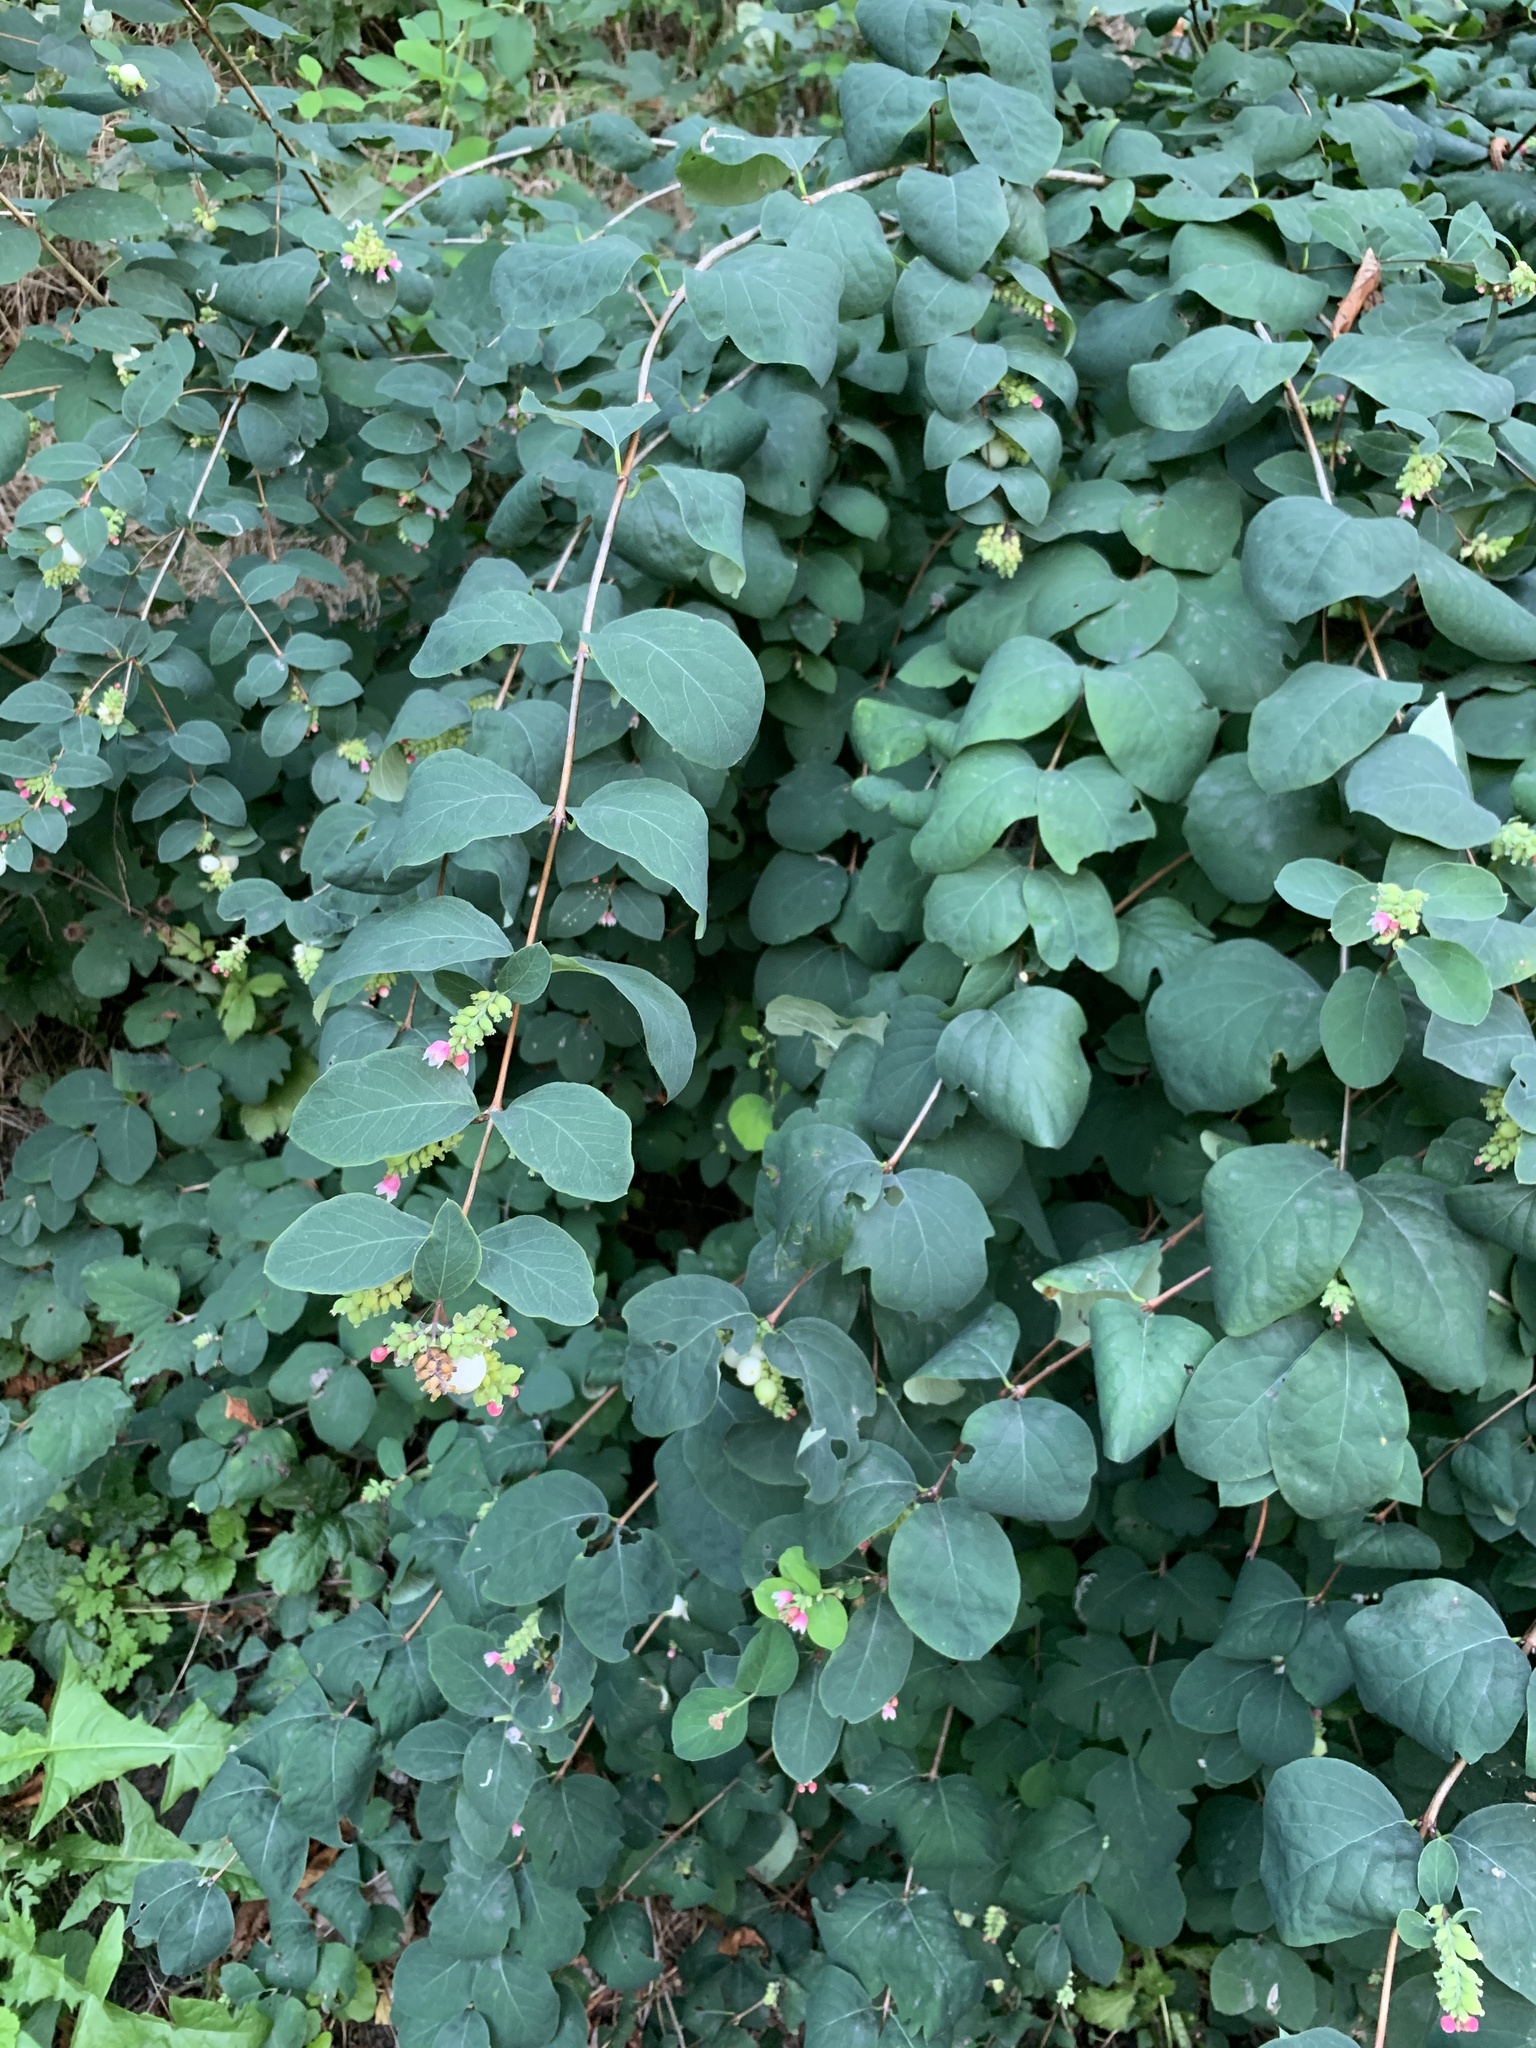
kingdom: Plantae
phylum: Tracheophyta
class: Magnoliopsida
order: Dipsacales
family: Caprifoliaceae
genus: Symphoricarpos
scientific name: Symphoricarpos albus
